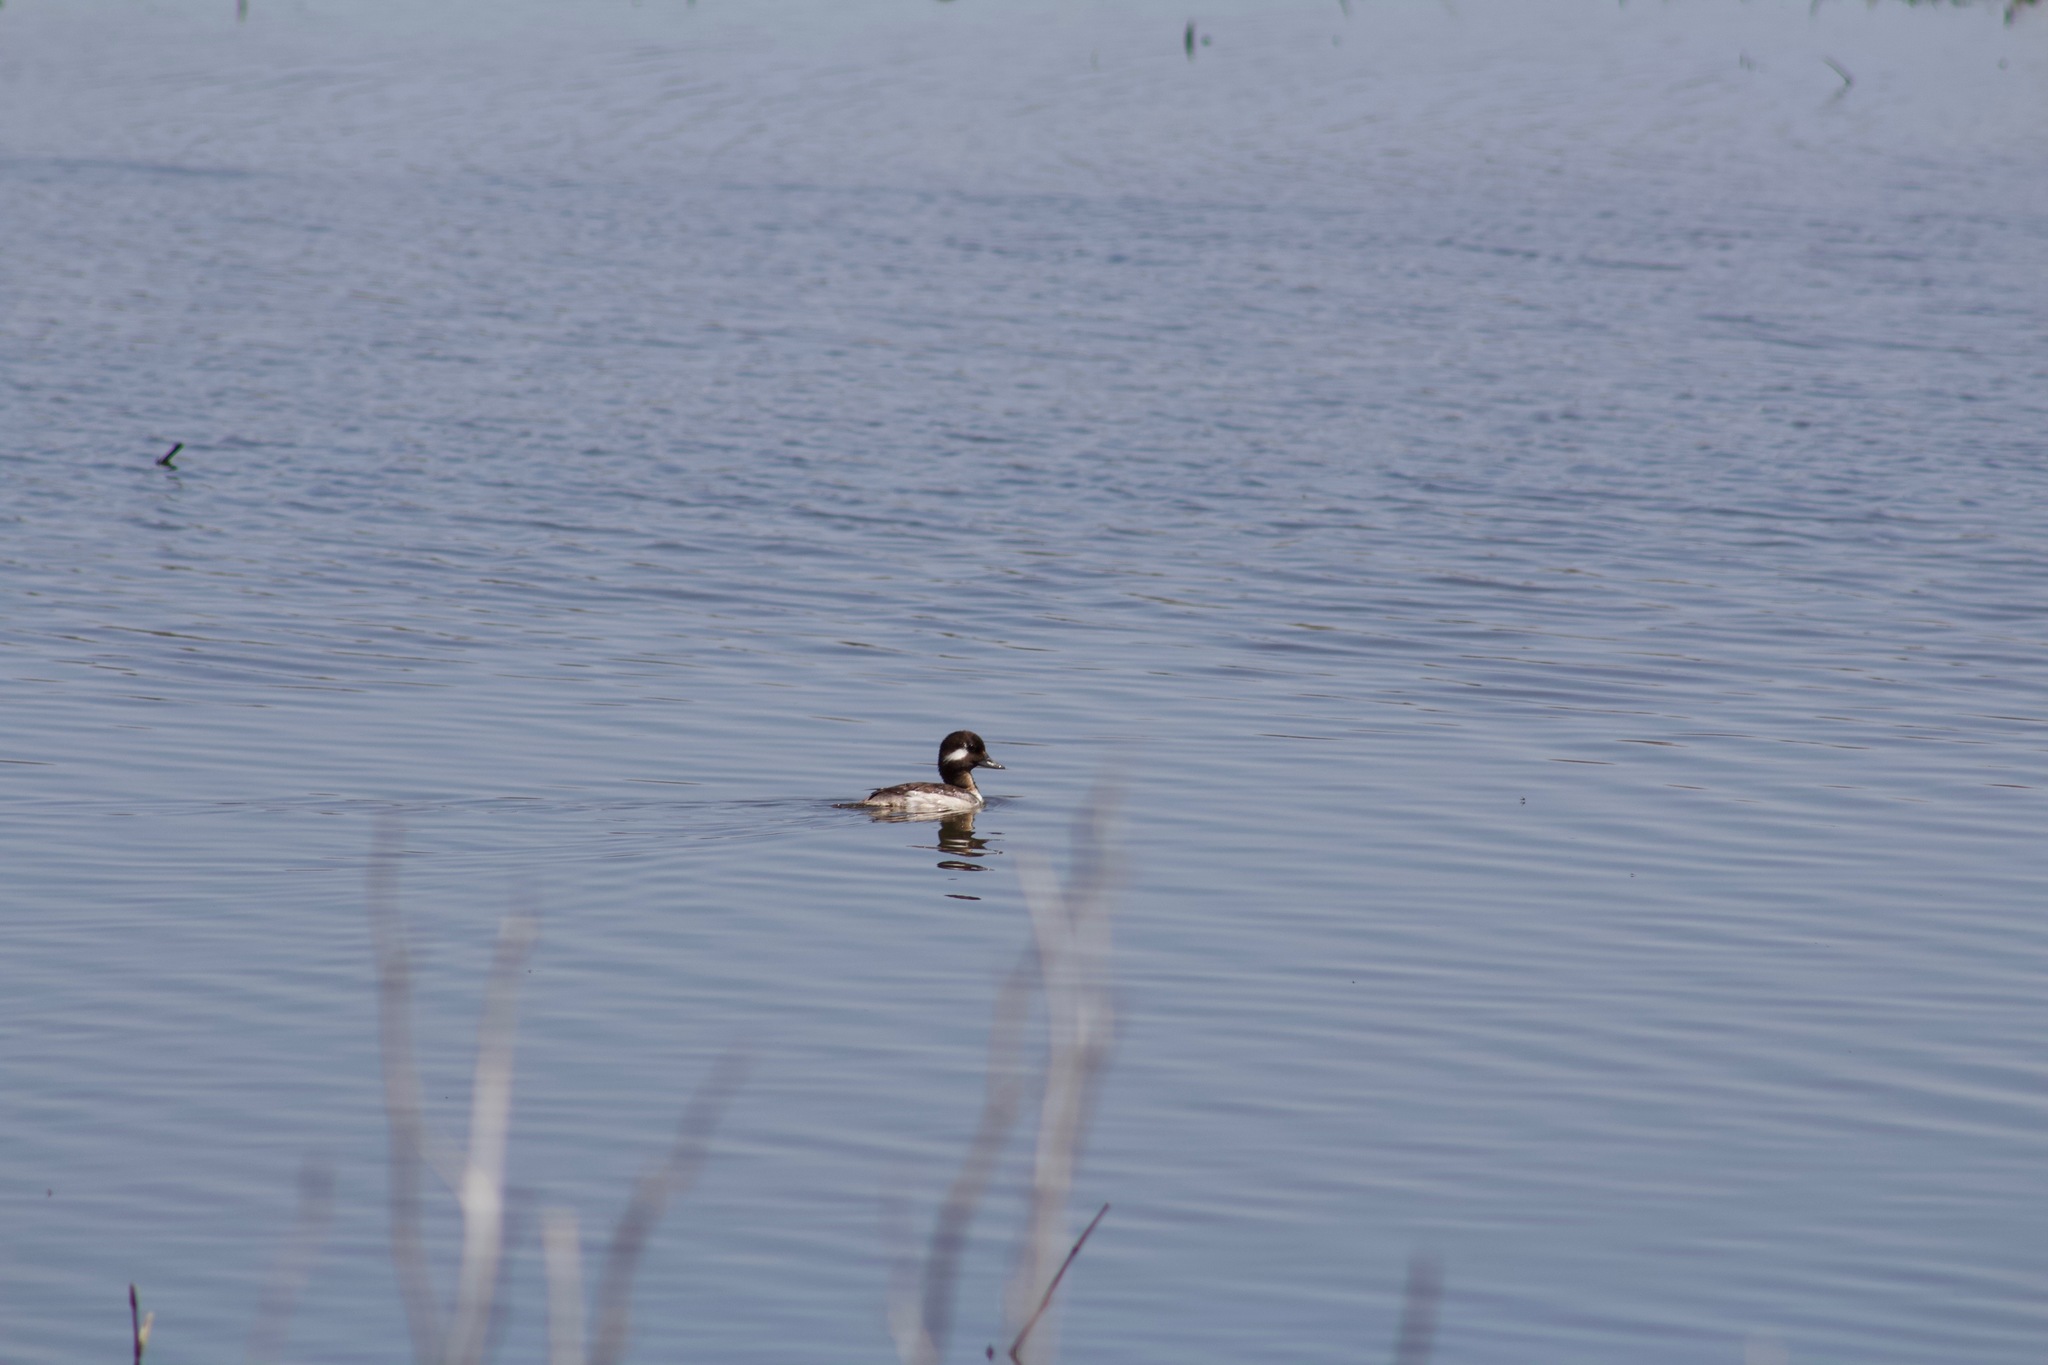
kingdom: Animalia
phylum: Chordata
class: Aves
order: Anseriformes
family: Anatidae
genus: Bucephala
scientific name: Bucephala albeola
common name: Bufflehead
